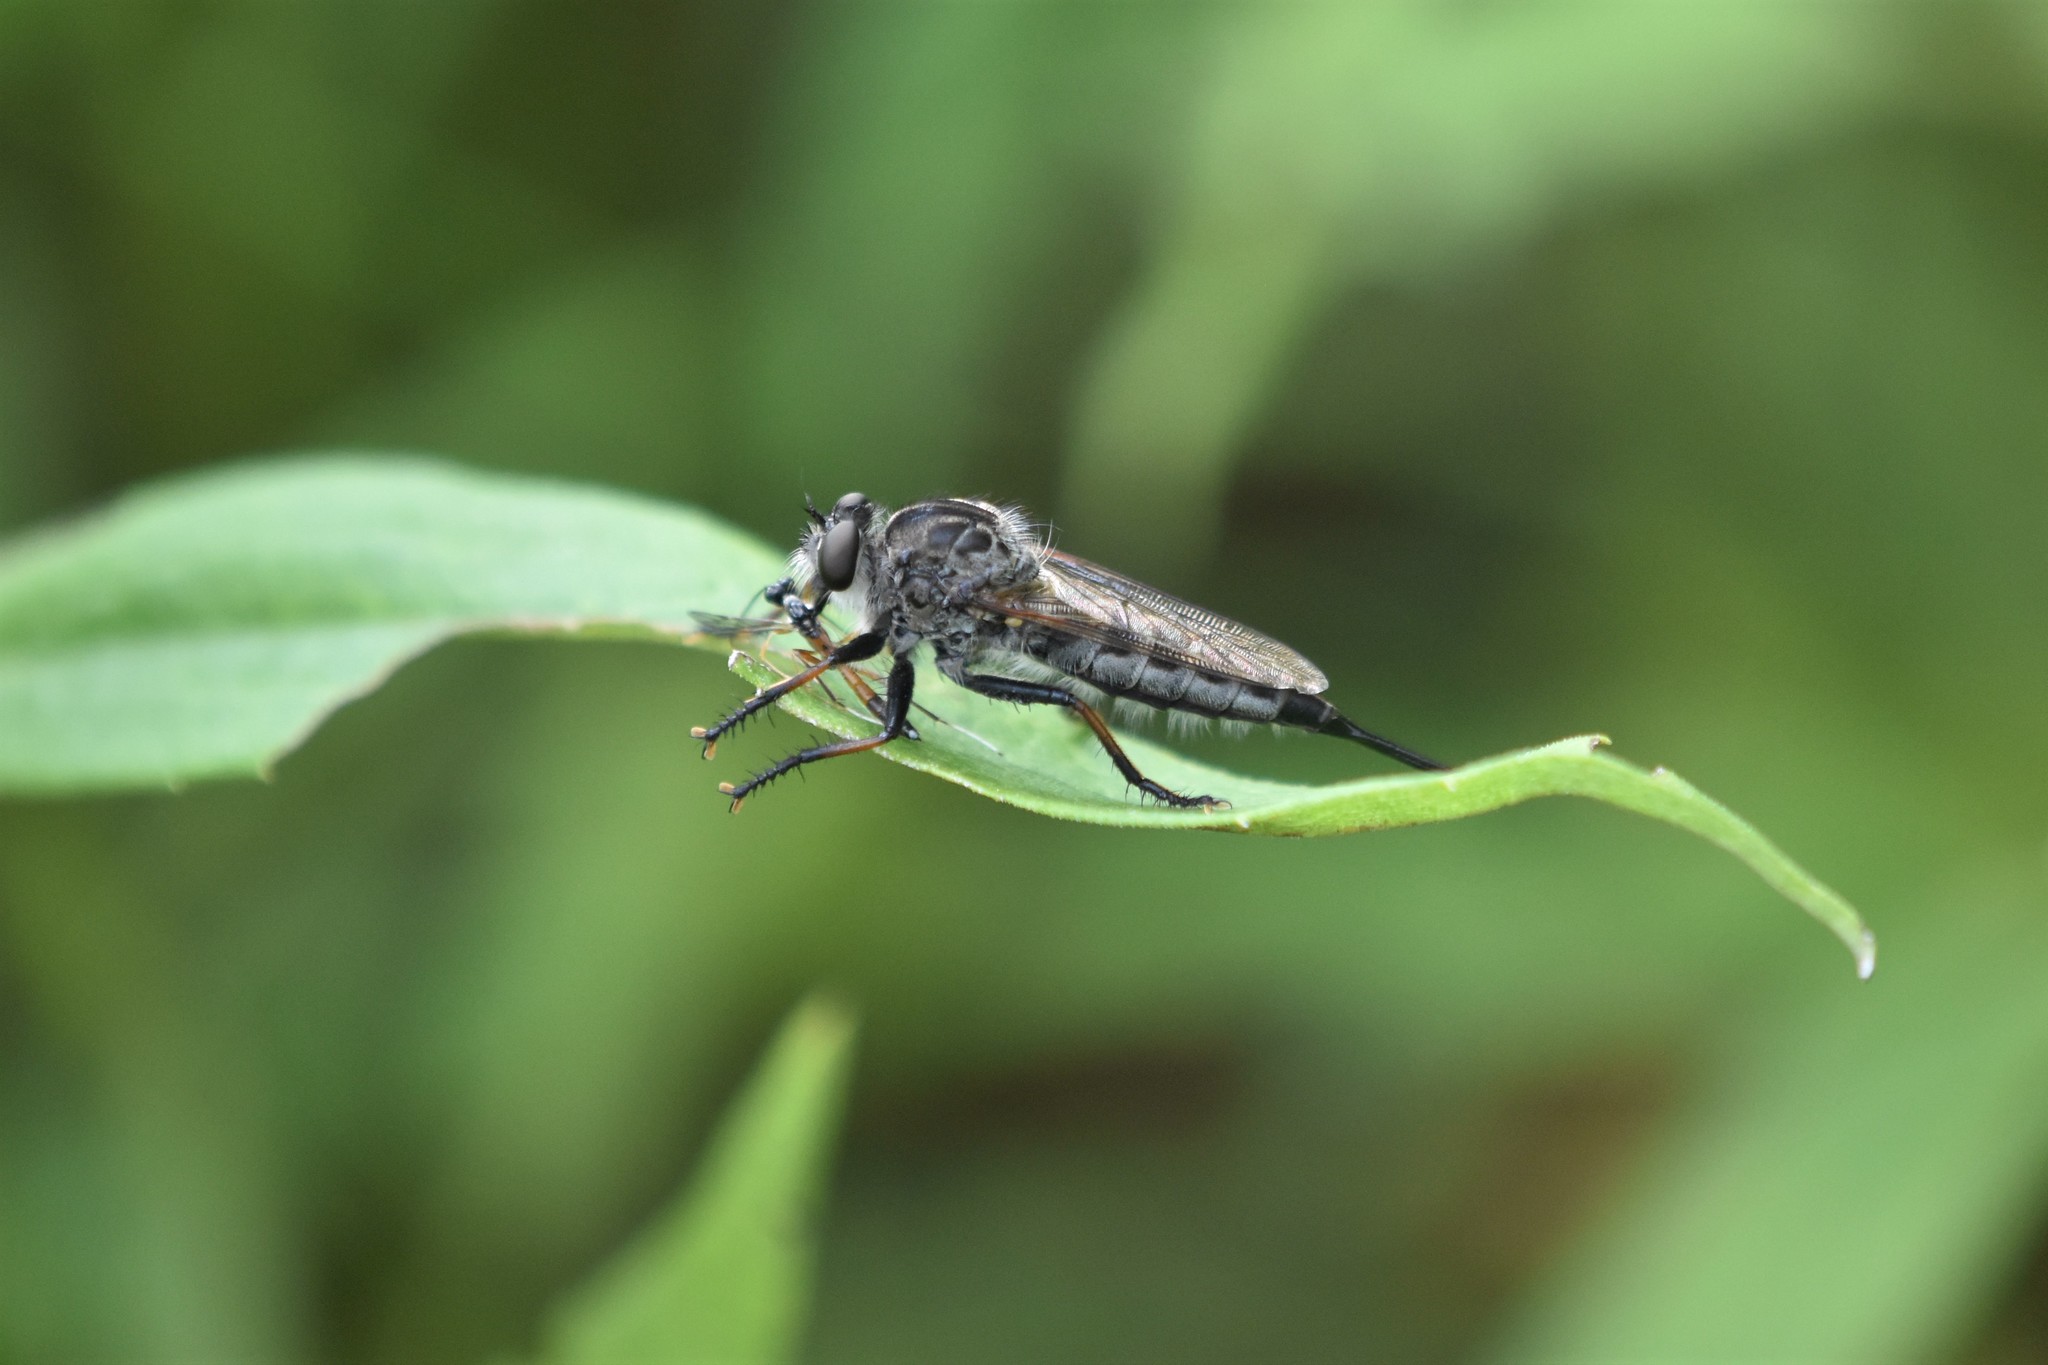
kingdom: Animalia
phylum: Arthropoda
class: Insecta
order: Diptera
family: Asilidae
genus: Efferia
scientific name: Efferia aestuans
